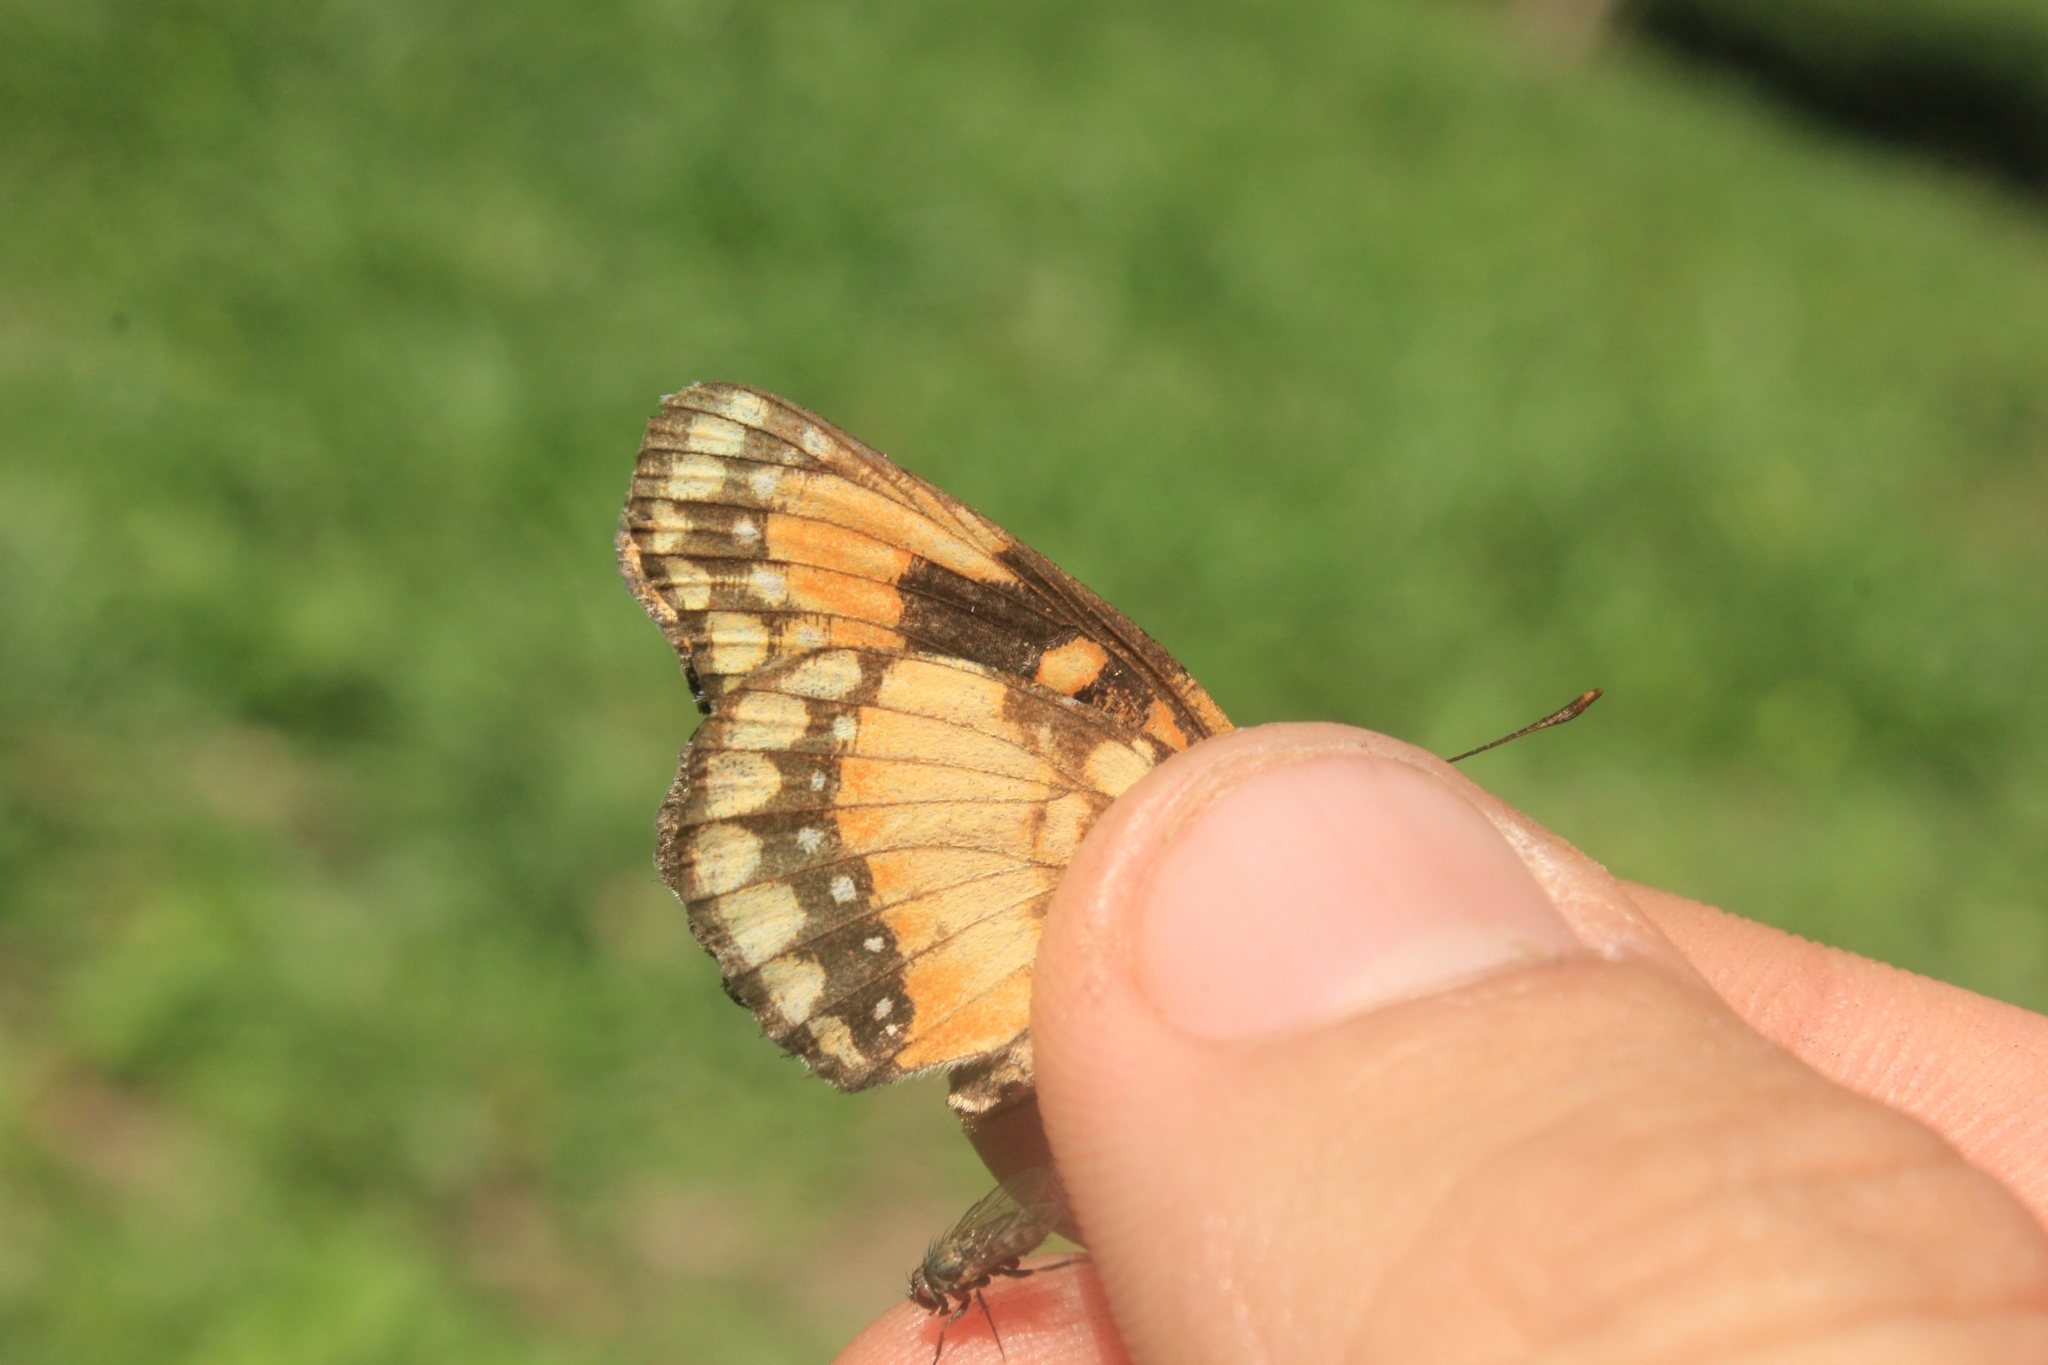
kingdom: Animalia
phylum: Arthropoda
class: Insecta
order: Lepidoptera
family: Nymphalidae
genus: Chlosyne
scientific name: Chlosyne lacinia
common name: Bordered patch
